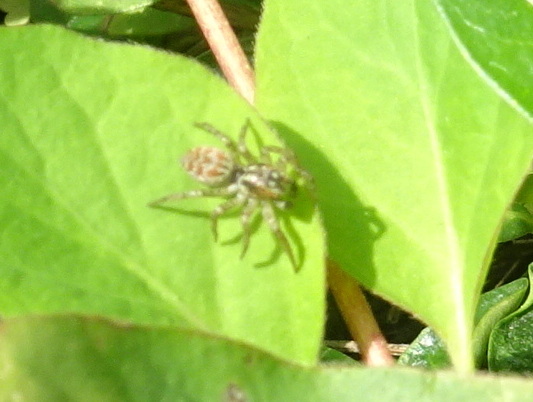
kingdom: Animalia
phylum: Arthropoda
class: Arachnida
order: Araneae
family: Salticidae
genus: Maevia
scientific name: Maevia inclemens
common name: Dimorphic jumper
